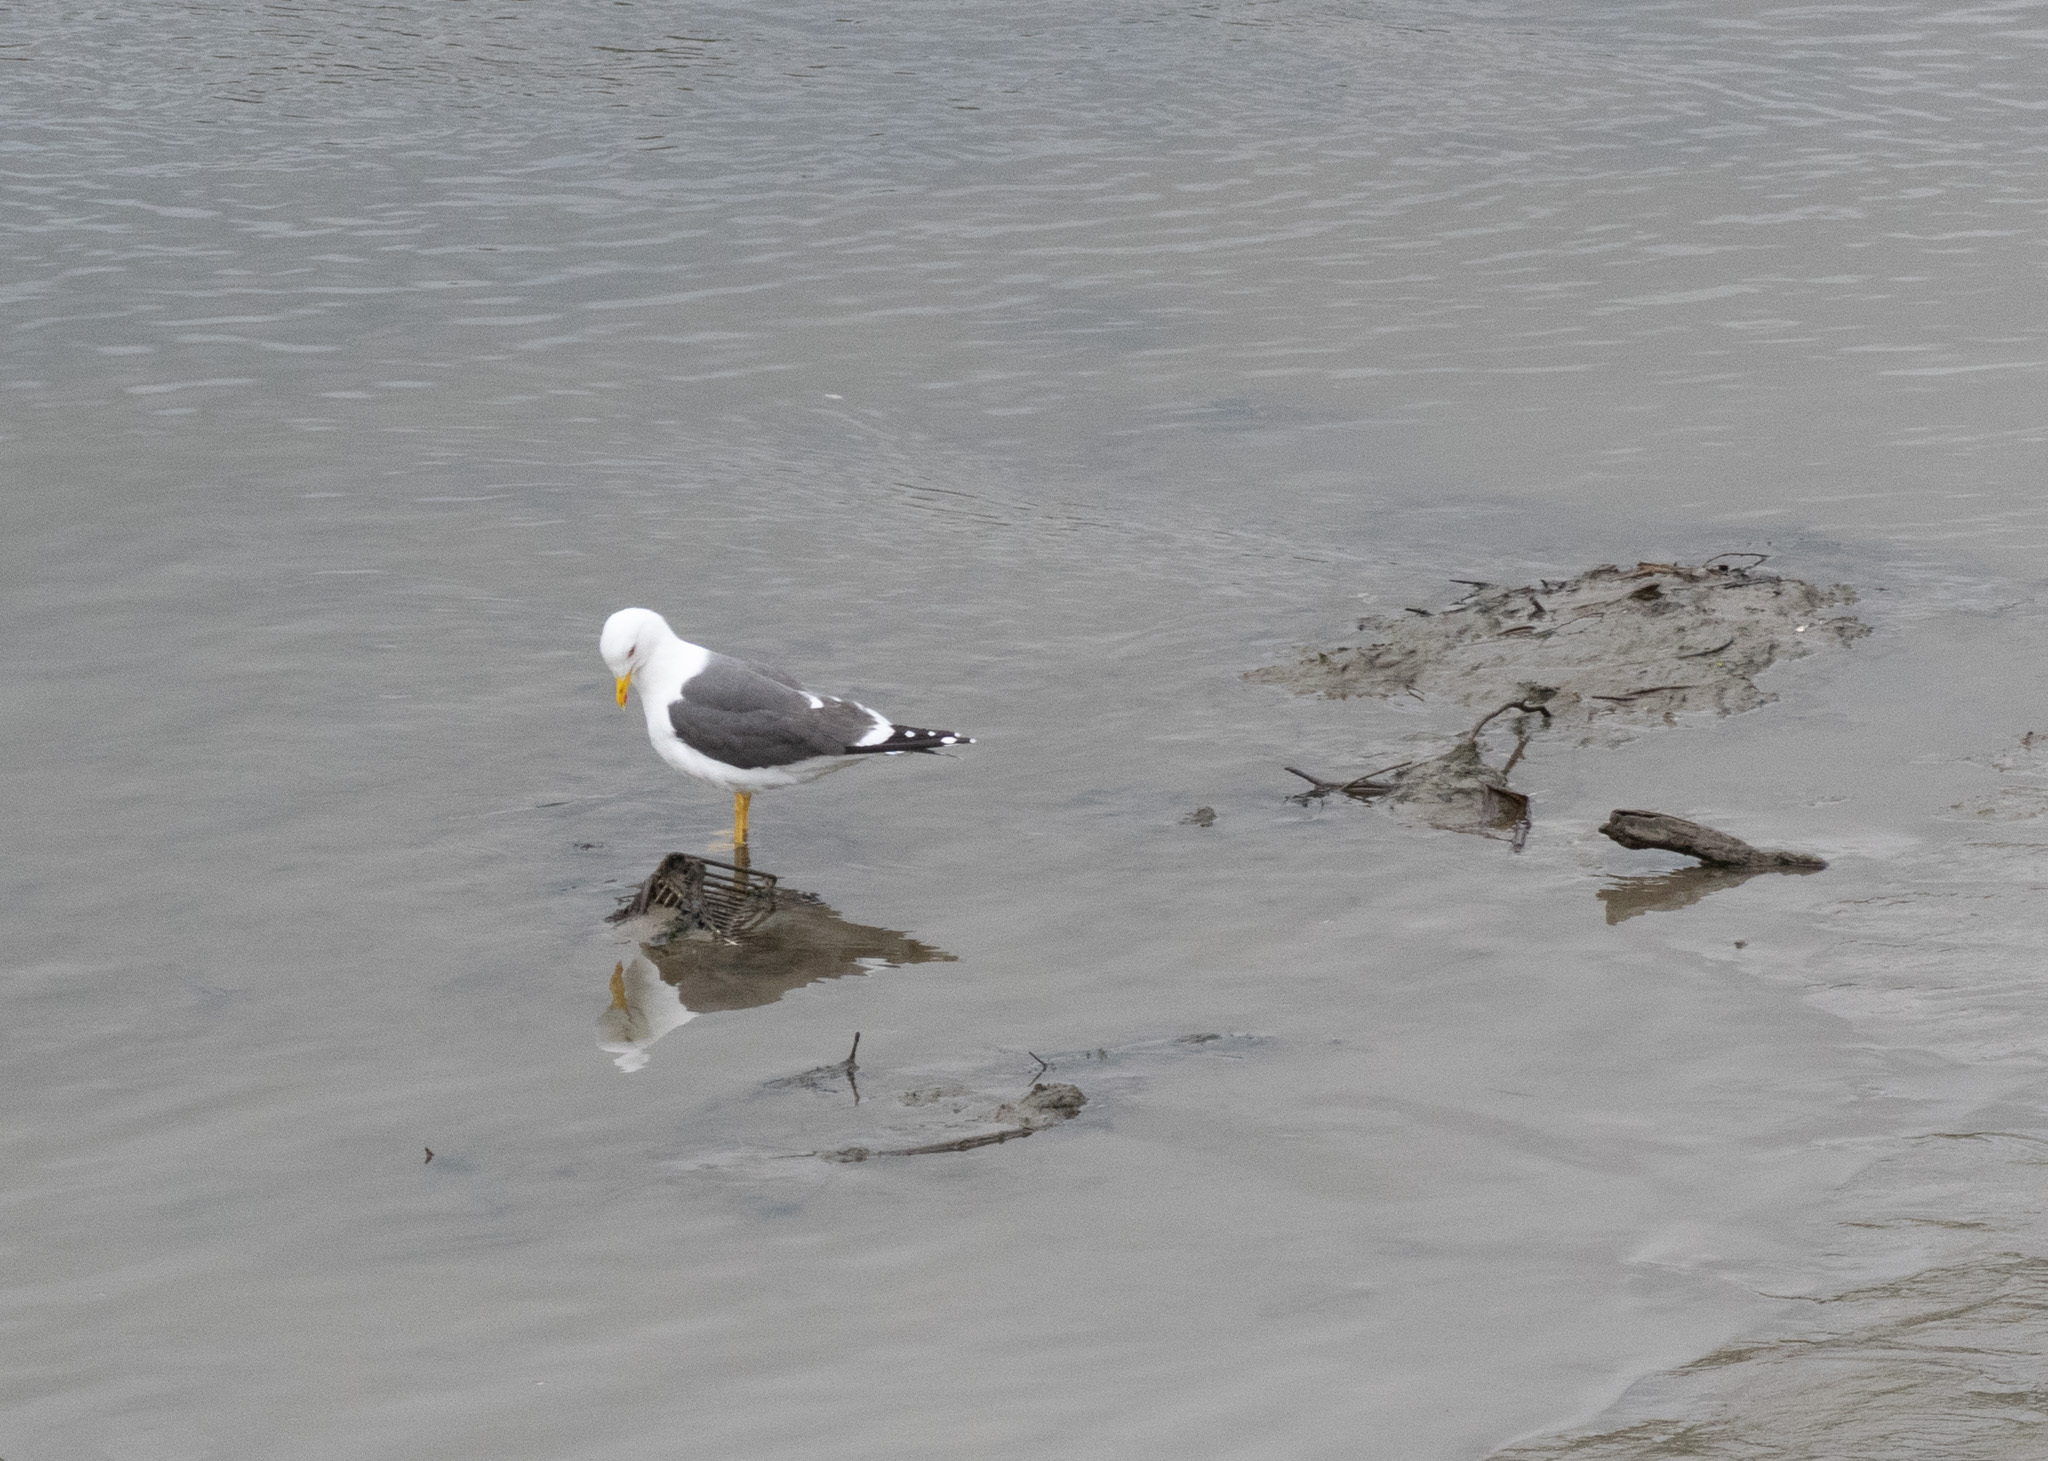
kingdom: Animalia
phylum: Chordata
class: Aves
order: Charadriiformes
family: Laridae
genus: Larus
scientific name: Larus fuscus
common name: Lesser black-backed gull
